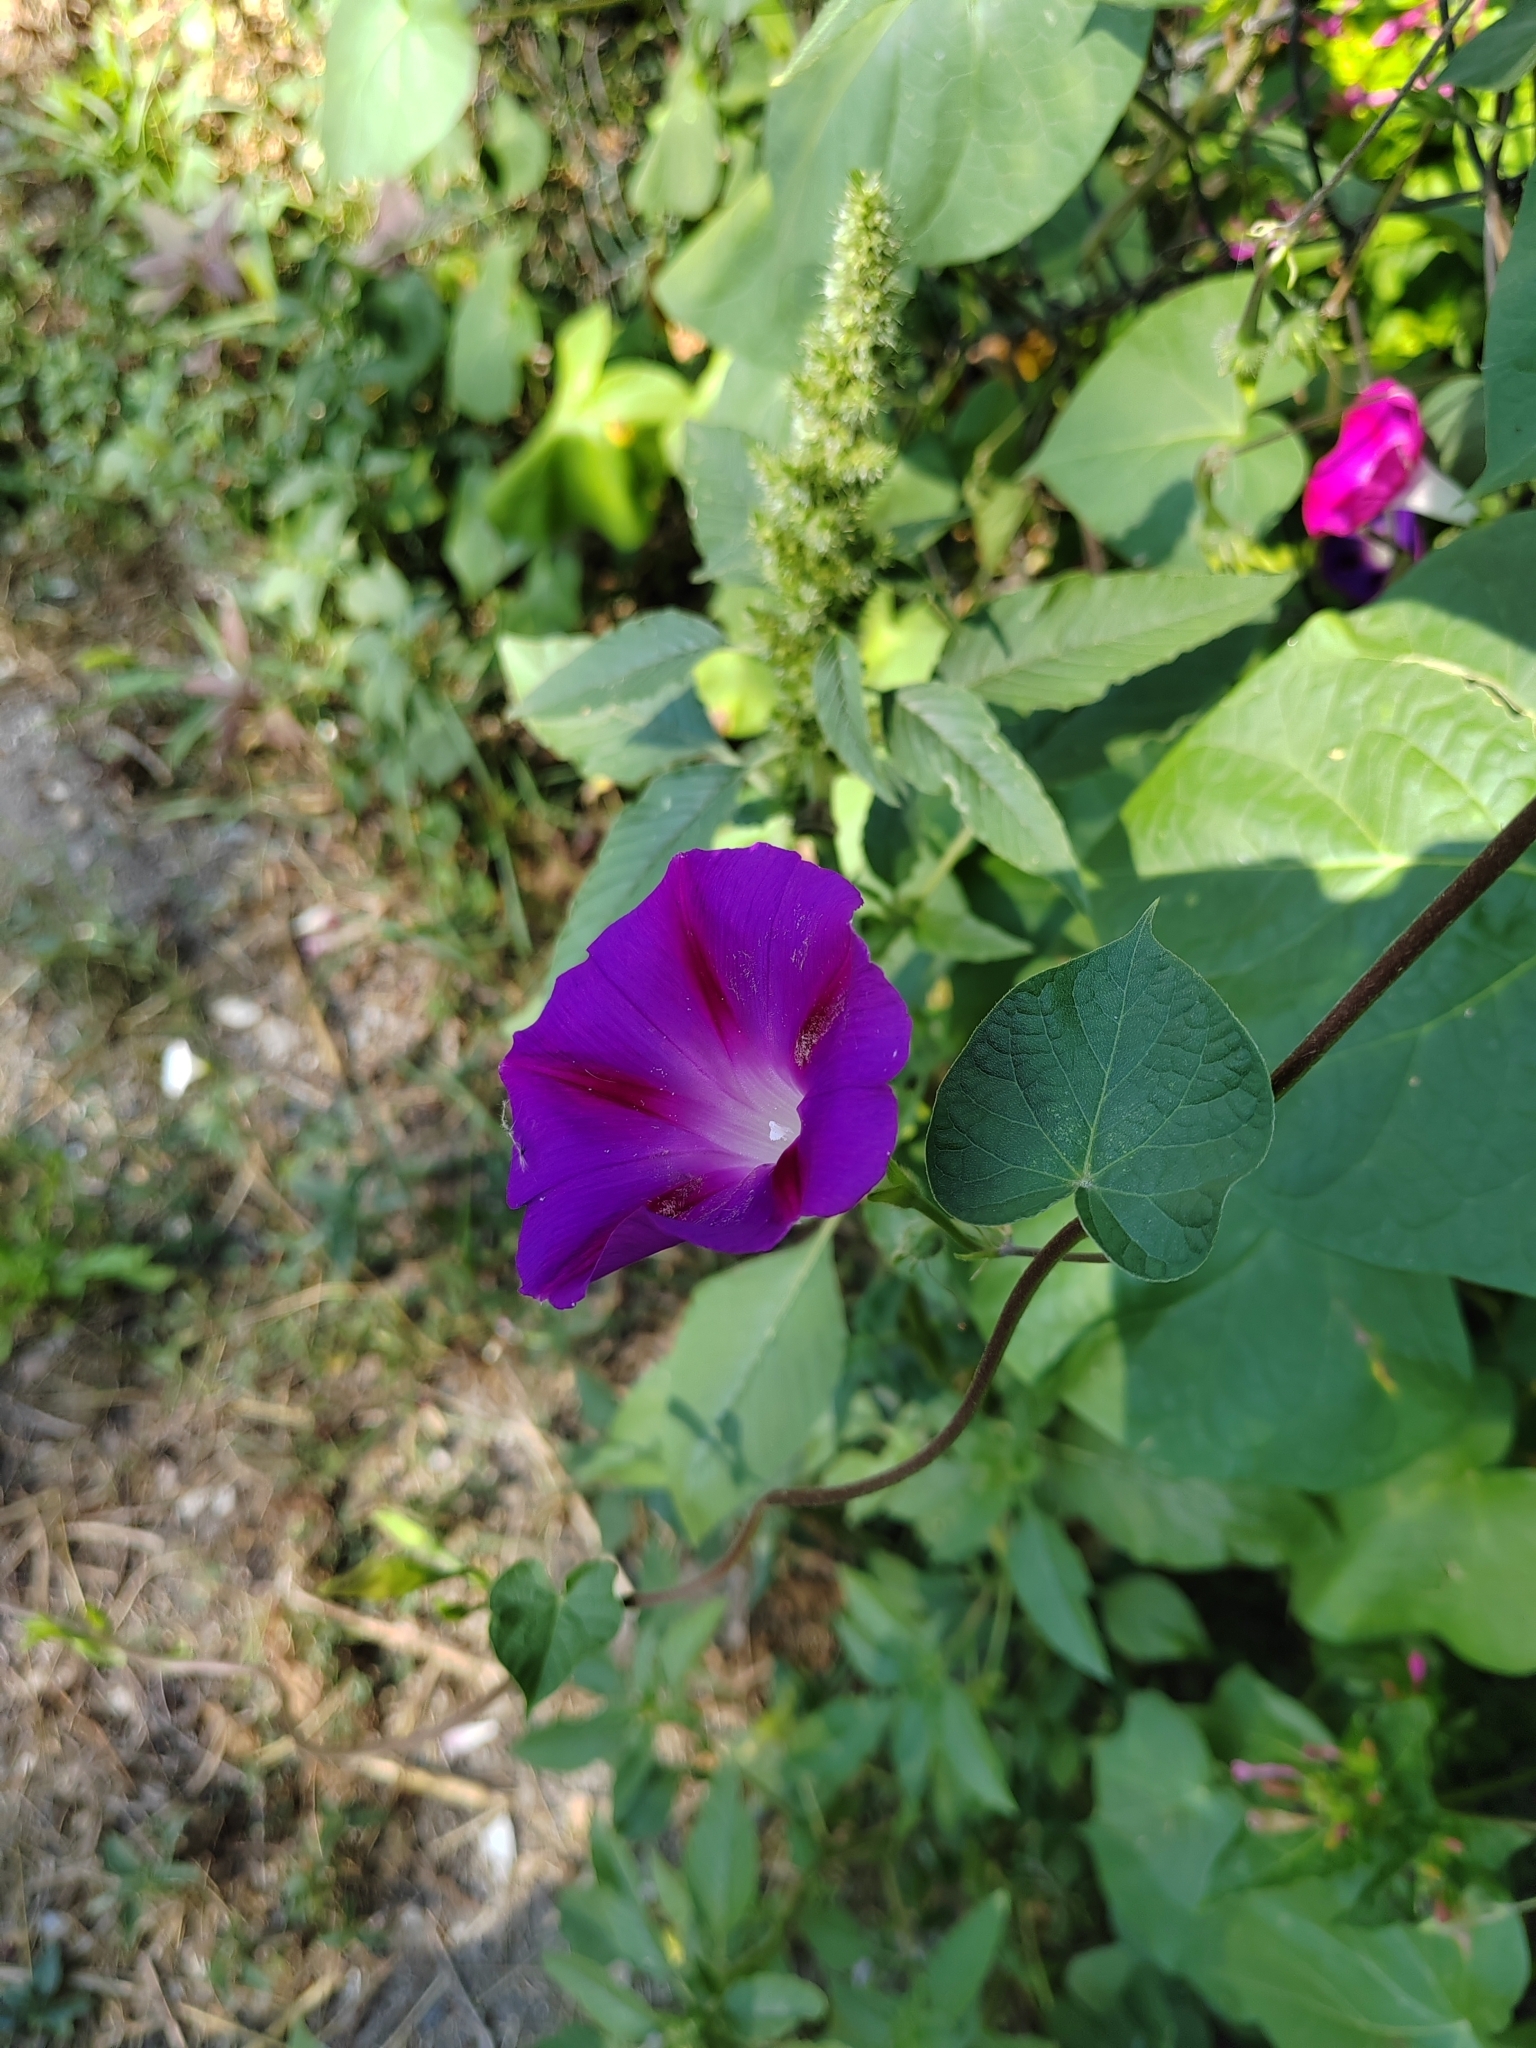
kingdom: Plantae
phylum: Tracheophyta
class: Magnoliopsida
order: Solanales
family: Convolvulaceae
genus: Ipomoea
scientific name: Ipomoea purpurea
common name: Common morning-glory
